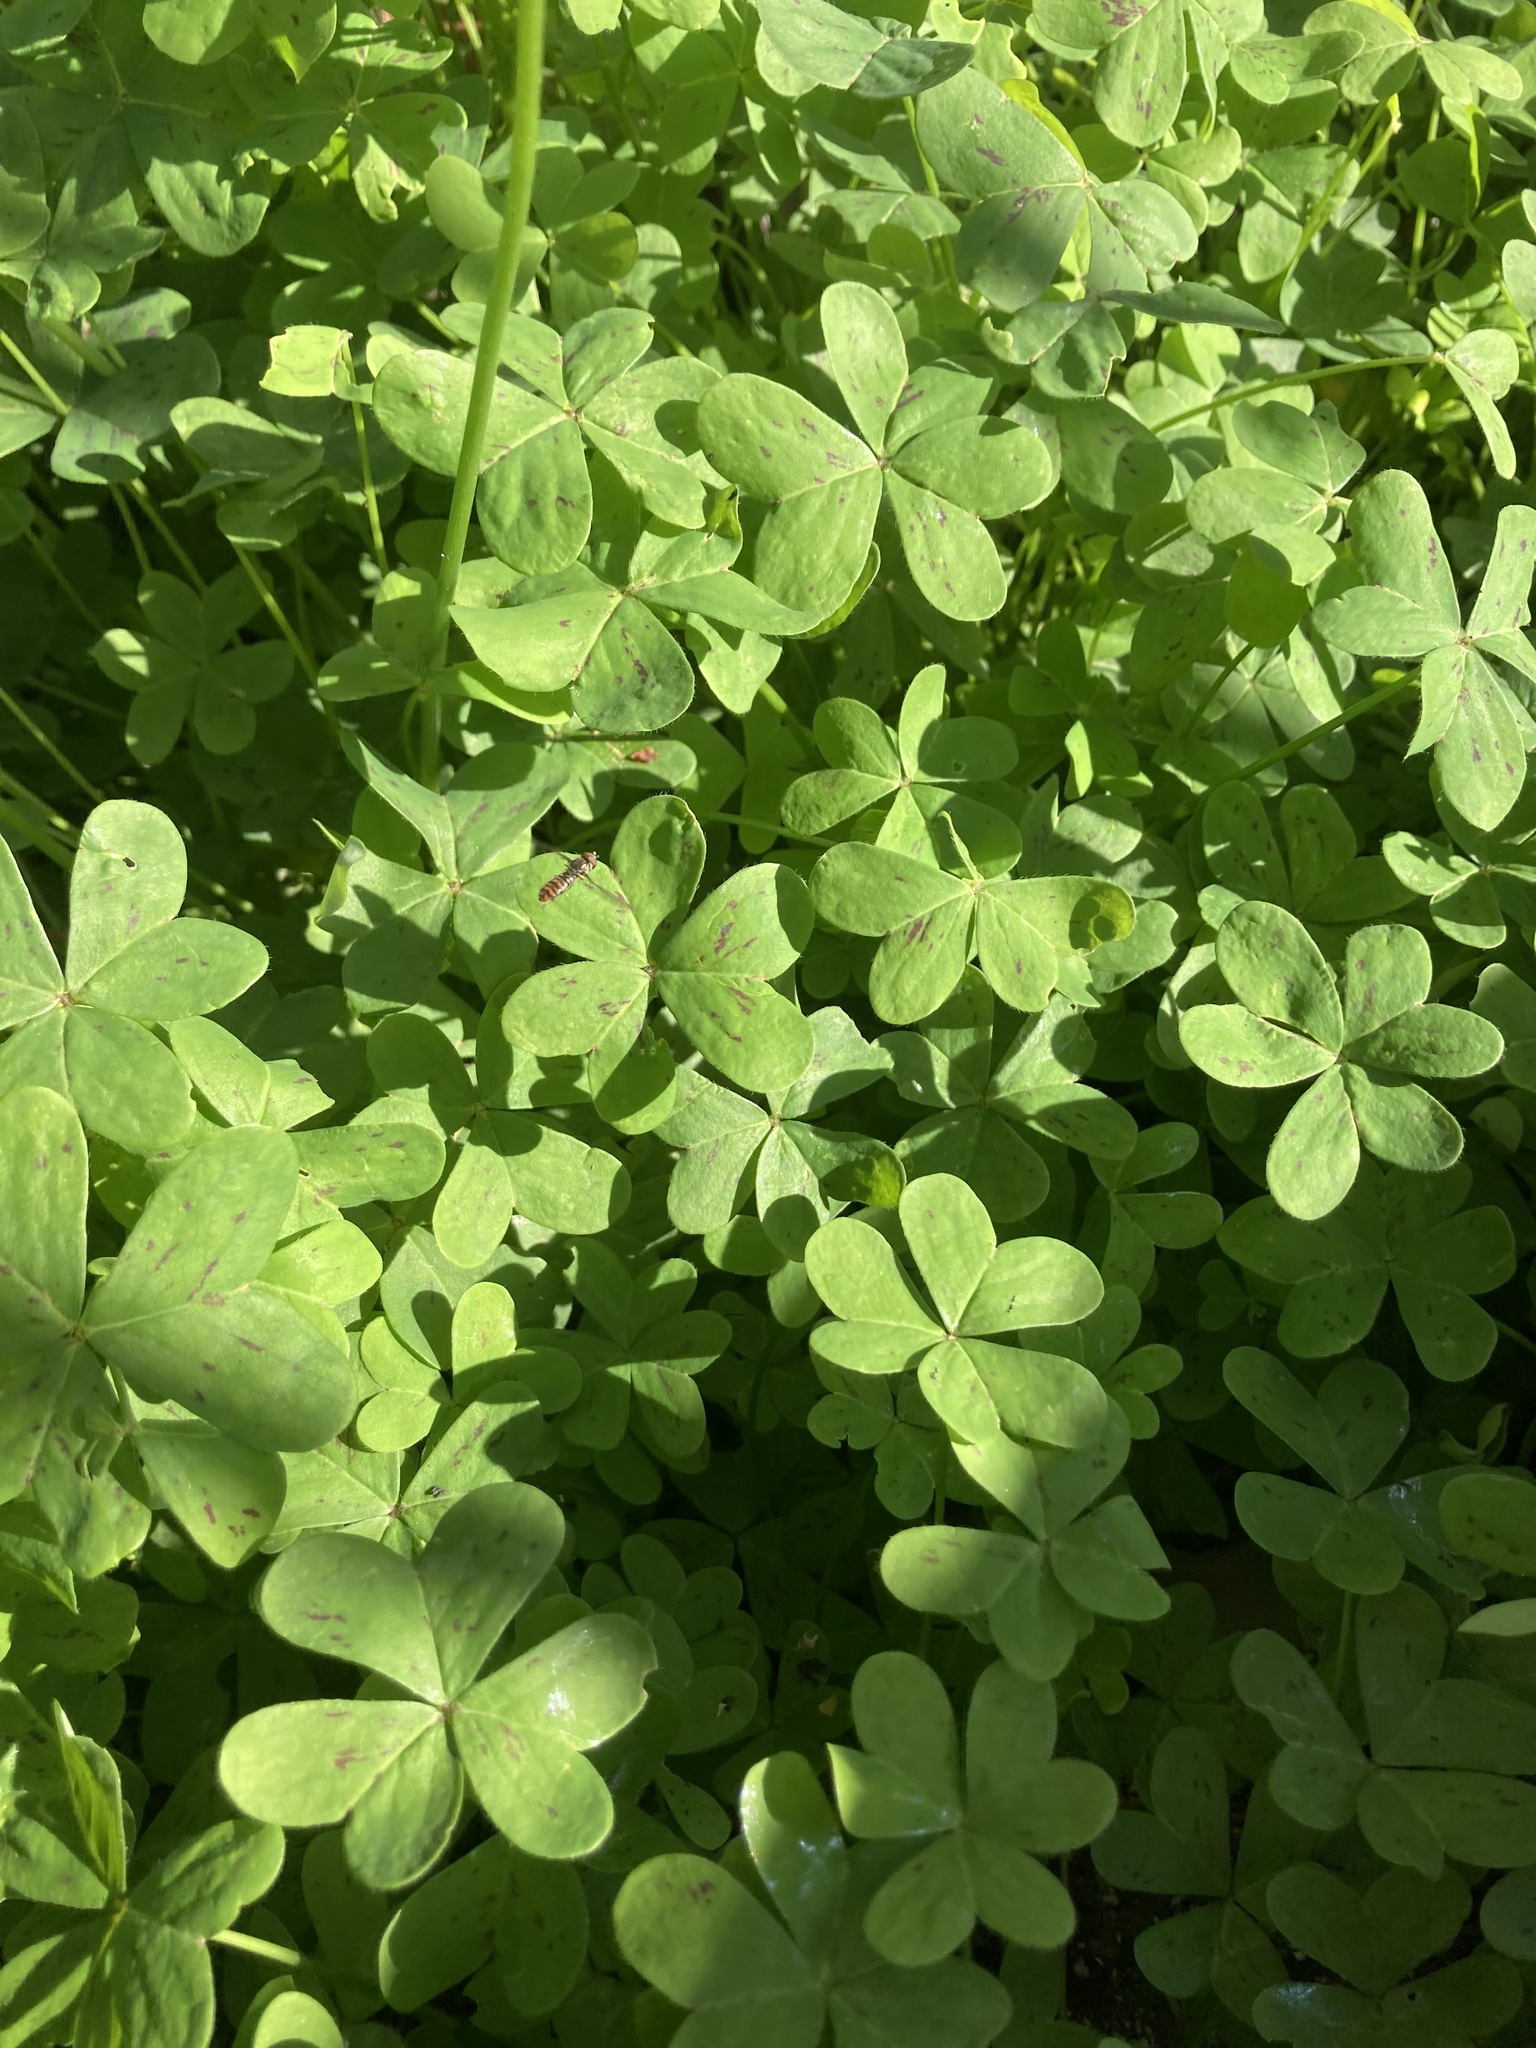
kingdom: Plantae
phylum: Tracheophyta
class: Magnoliopsida
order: Oxalidales
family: Oxalidaceae
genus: Oxalis
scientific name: Oxalis pes-caprae
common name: Bermuda-buttercup
